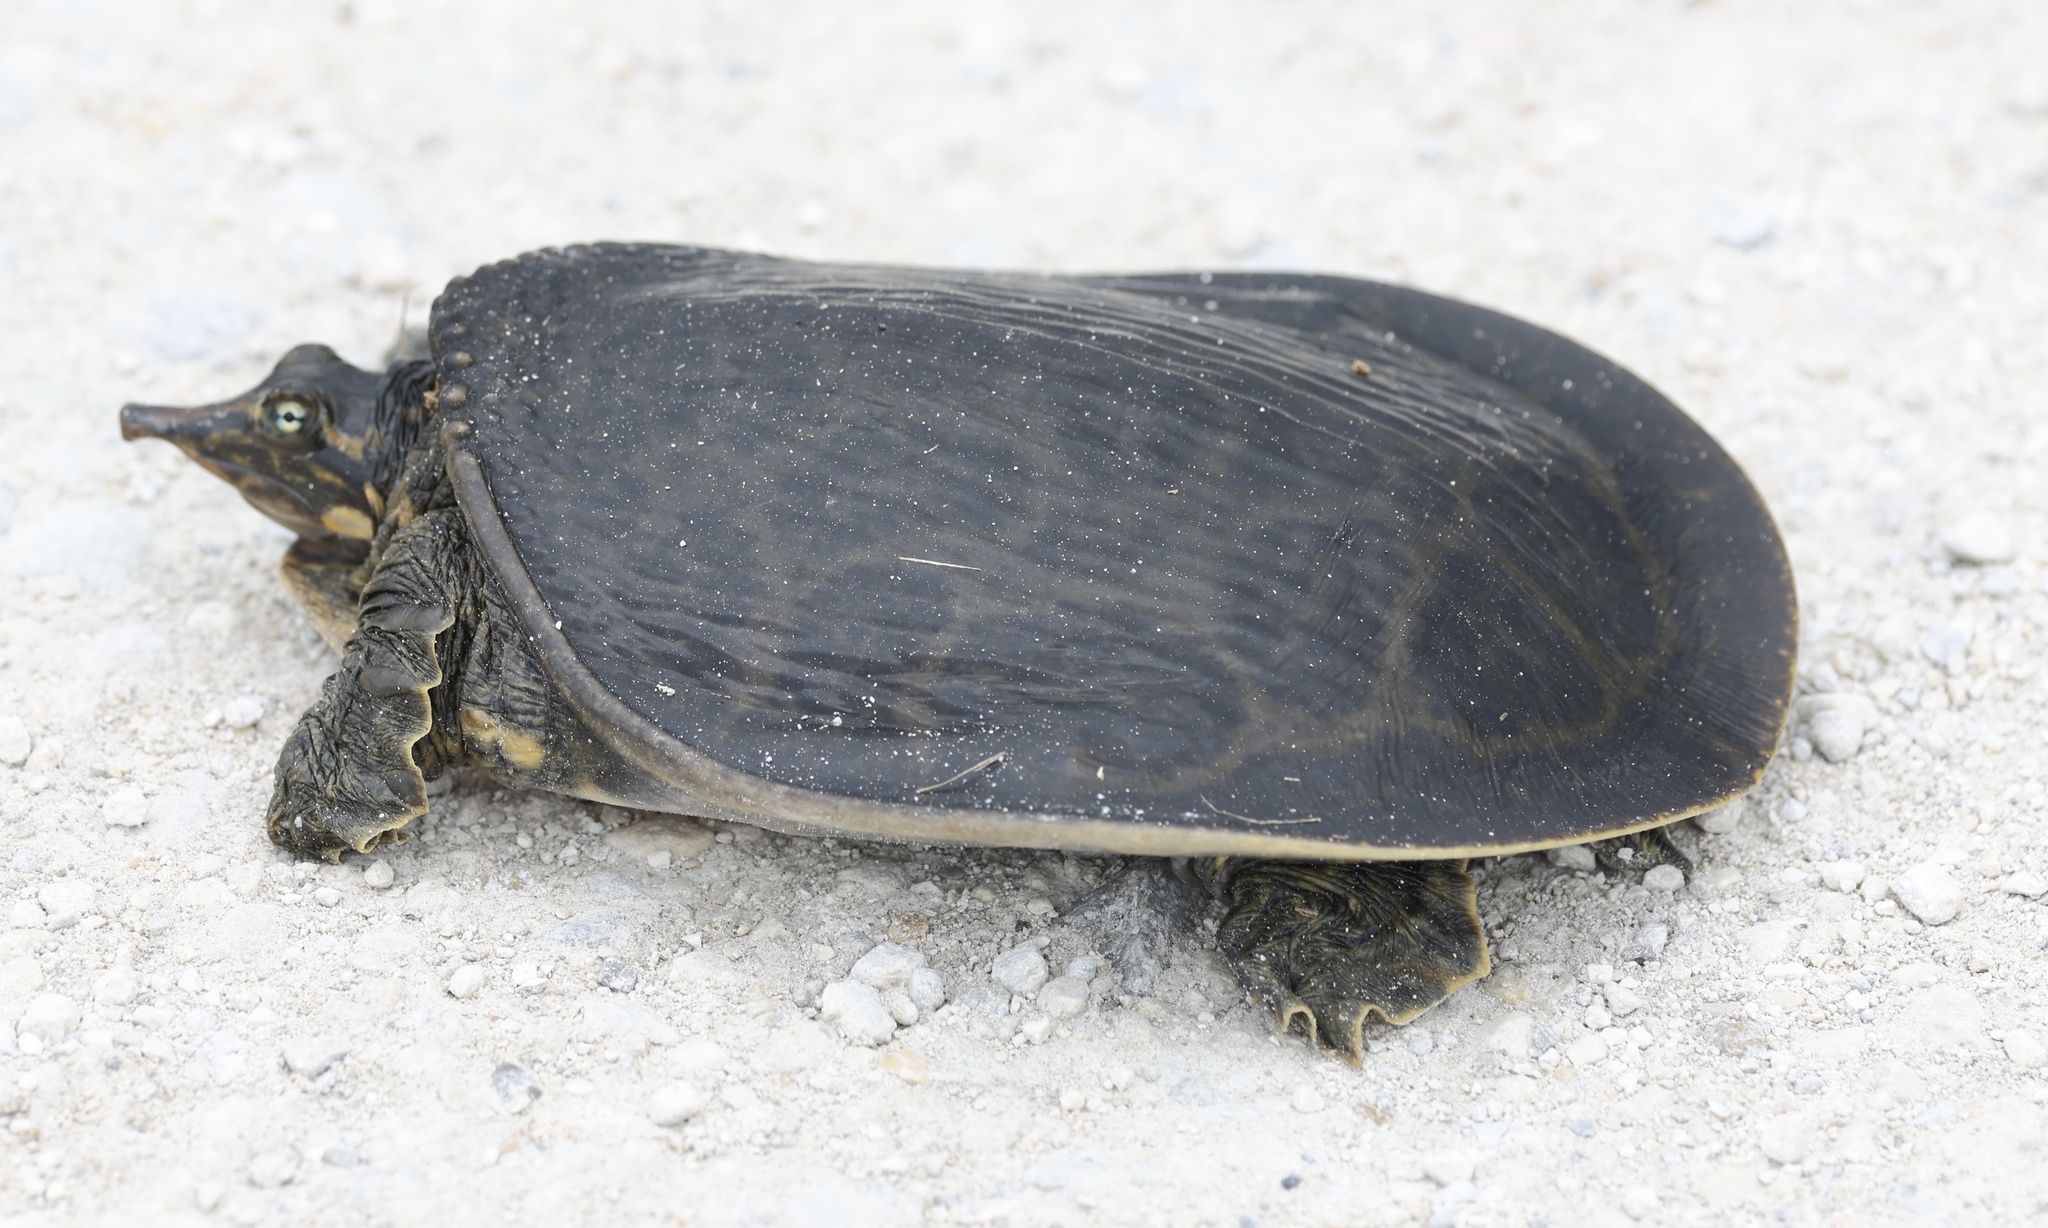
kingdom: Animalia
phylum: Chordata
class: Testudines
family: Trionychidae
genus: Apalone
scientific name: Apalone ferox
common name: Florida softshell turtle
